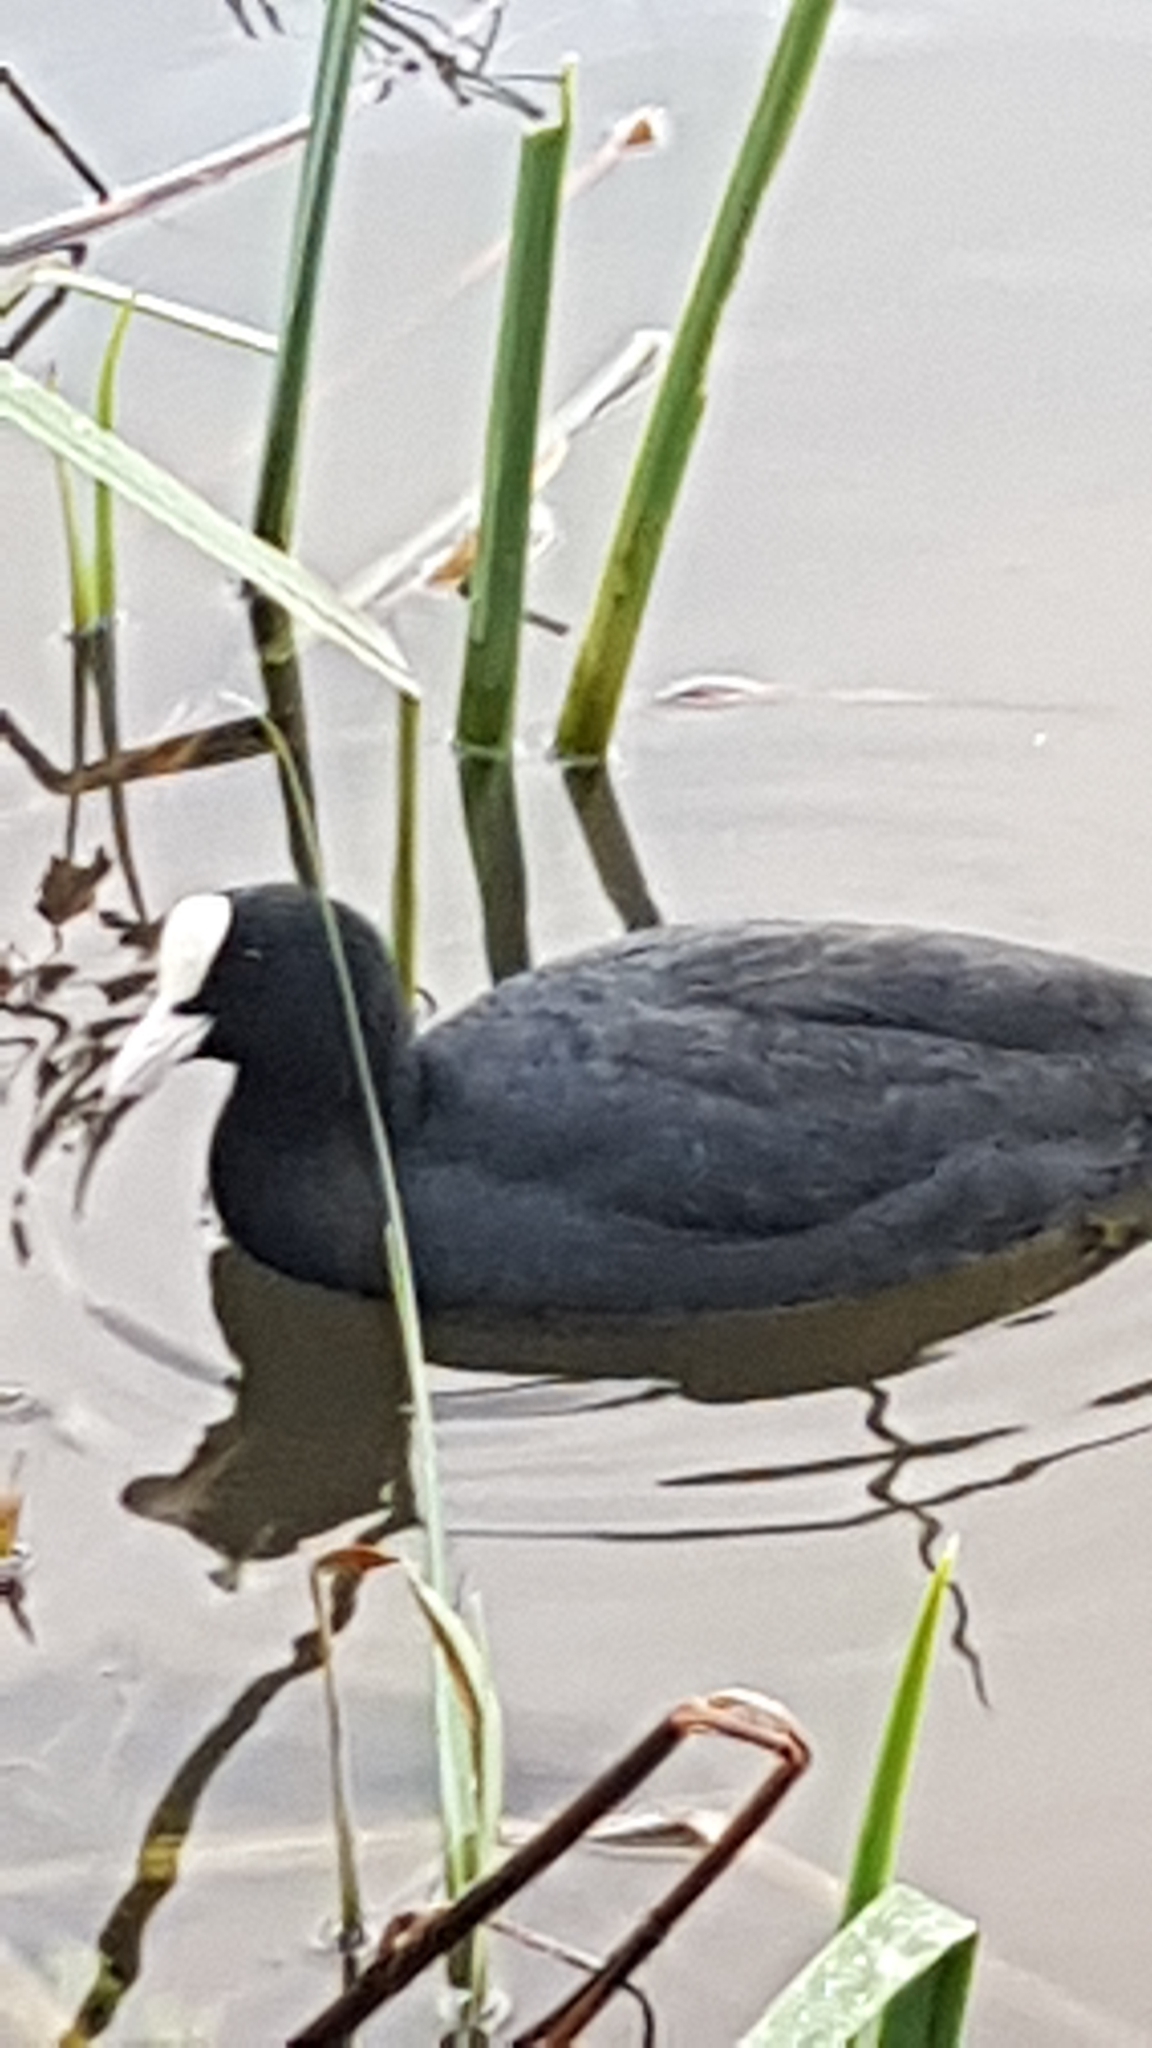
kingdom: Animalia
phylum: Chordata
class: Aves
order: Gruiformes
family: Rallidae
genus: Fulica
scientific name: Fulica atra
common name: Eurasian coot
